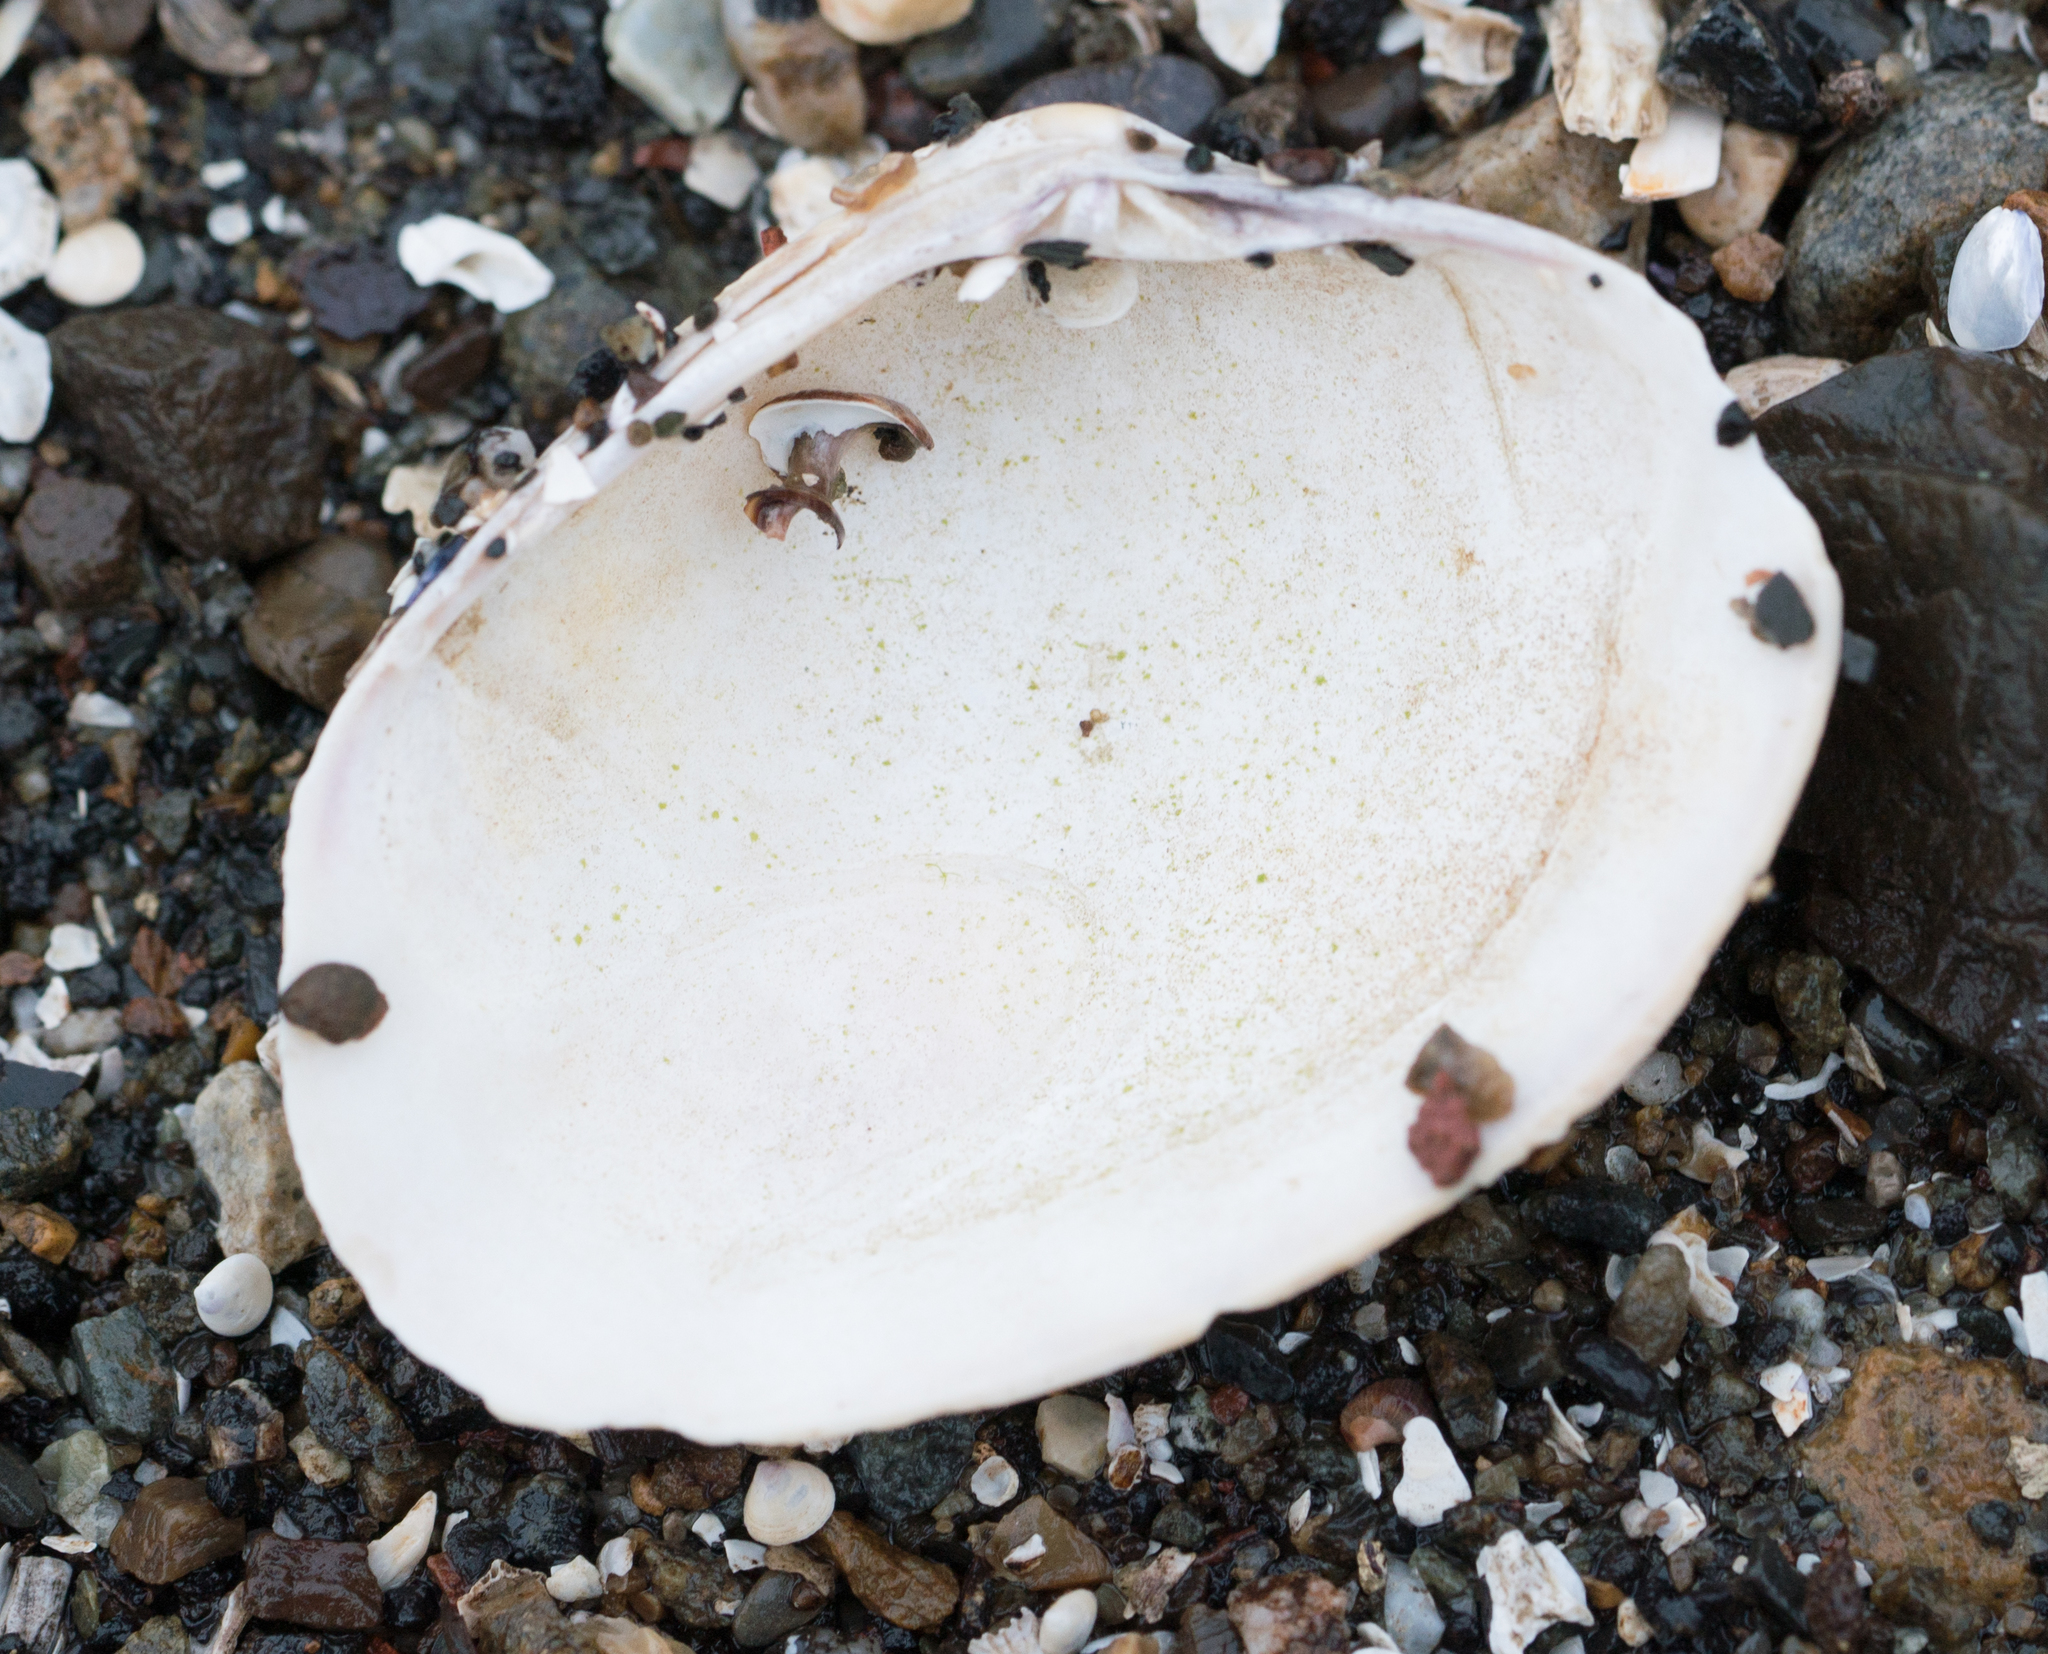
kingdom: Animalia
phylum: Mollusca
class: Bivalvia
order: Venerida
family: Veneridae
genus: Ruditapes
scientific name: Ruditapes philippinarum
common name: Manila clam
